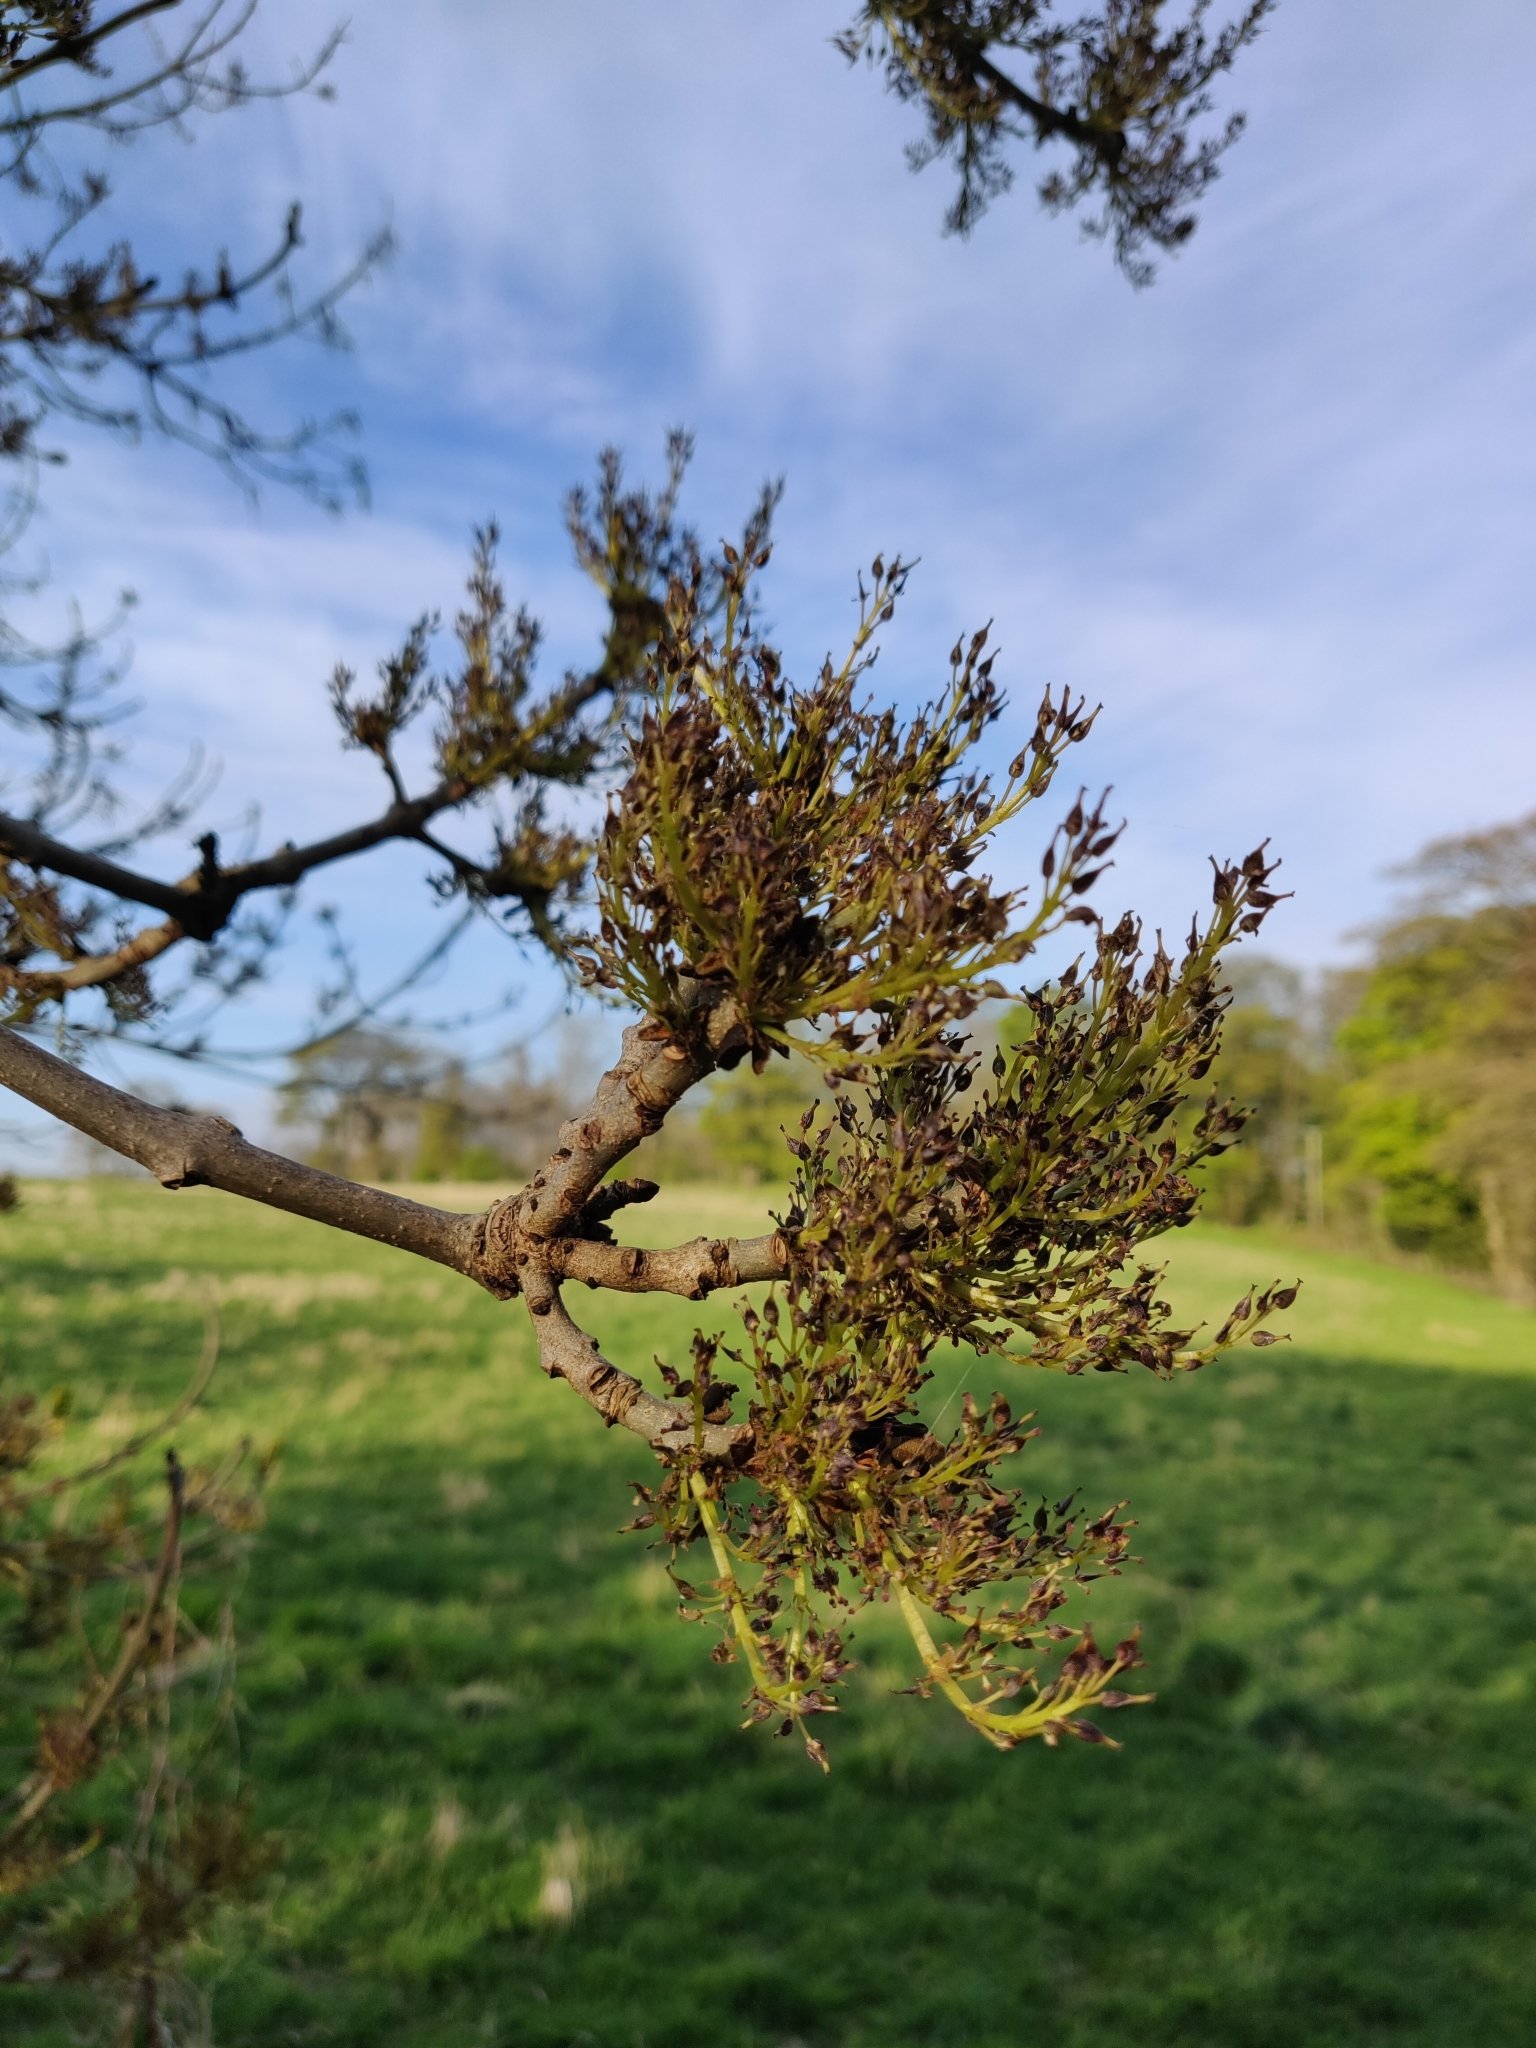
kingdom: Plantae
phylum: Tracheophyta
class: Magnoliopsida
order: Lamiales
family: Oleaceae
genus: Fraxinus
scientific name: Fraxinus excelsior
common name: European ash
